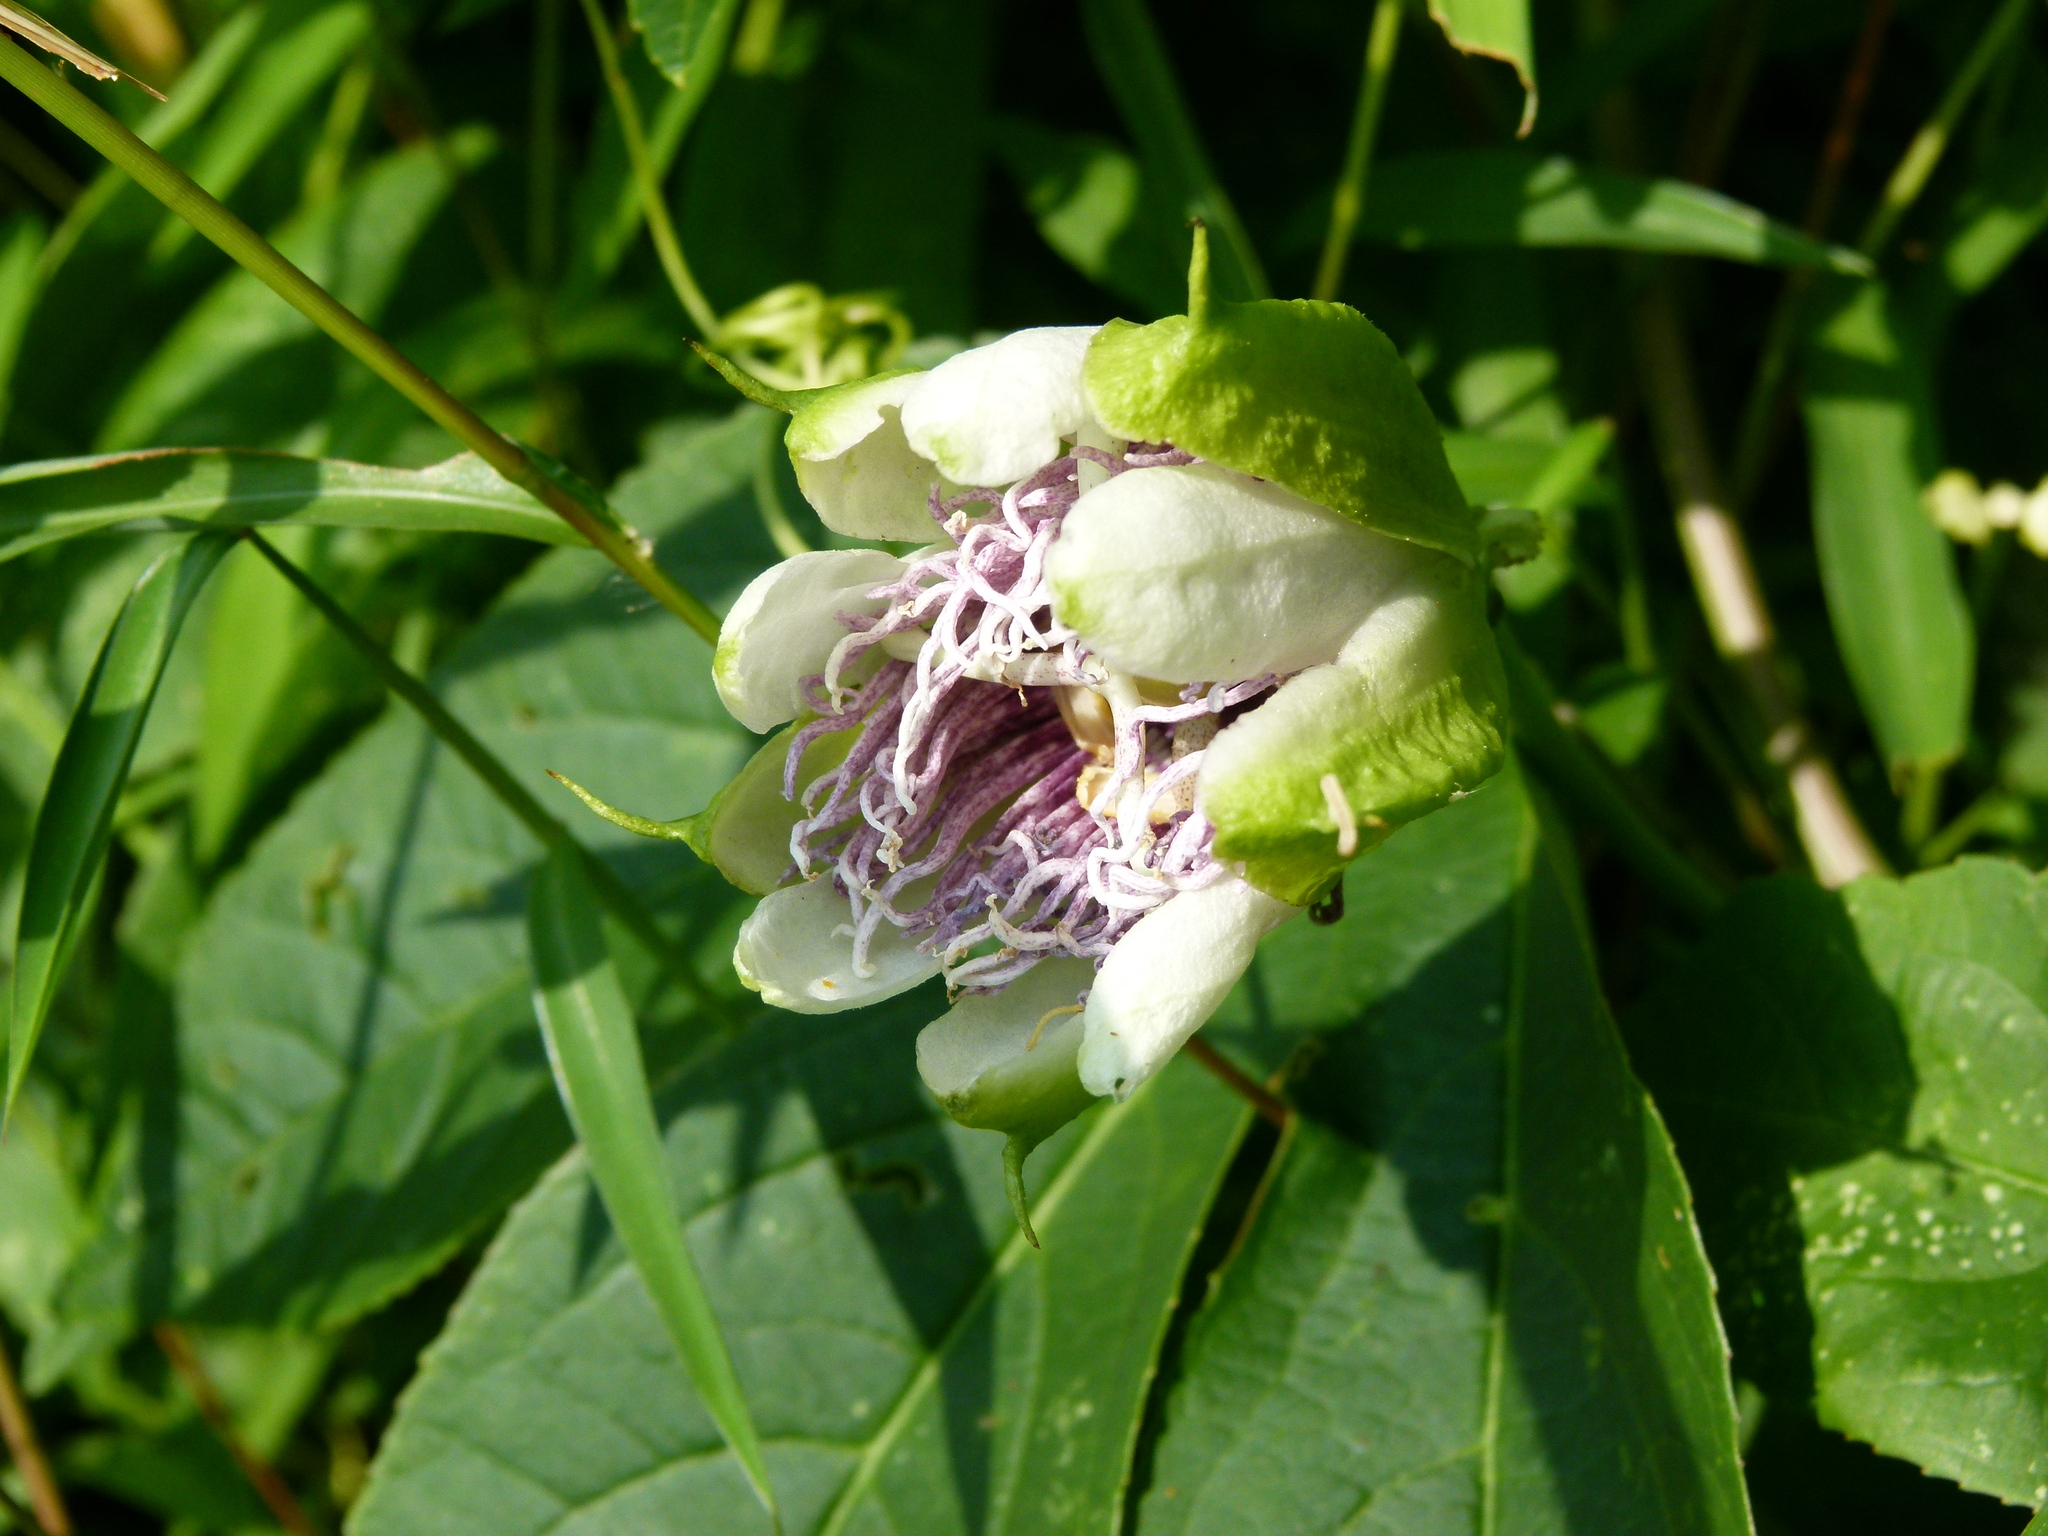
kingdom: Plantae
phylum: Tracheophyta
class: Magnoliopsida
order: Malpighiales
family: Passifloraceae
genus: Passiflora
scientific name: Passiflora incarnata
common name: Apricot-vine
